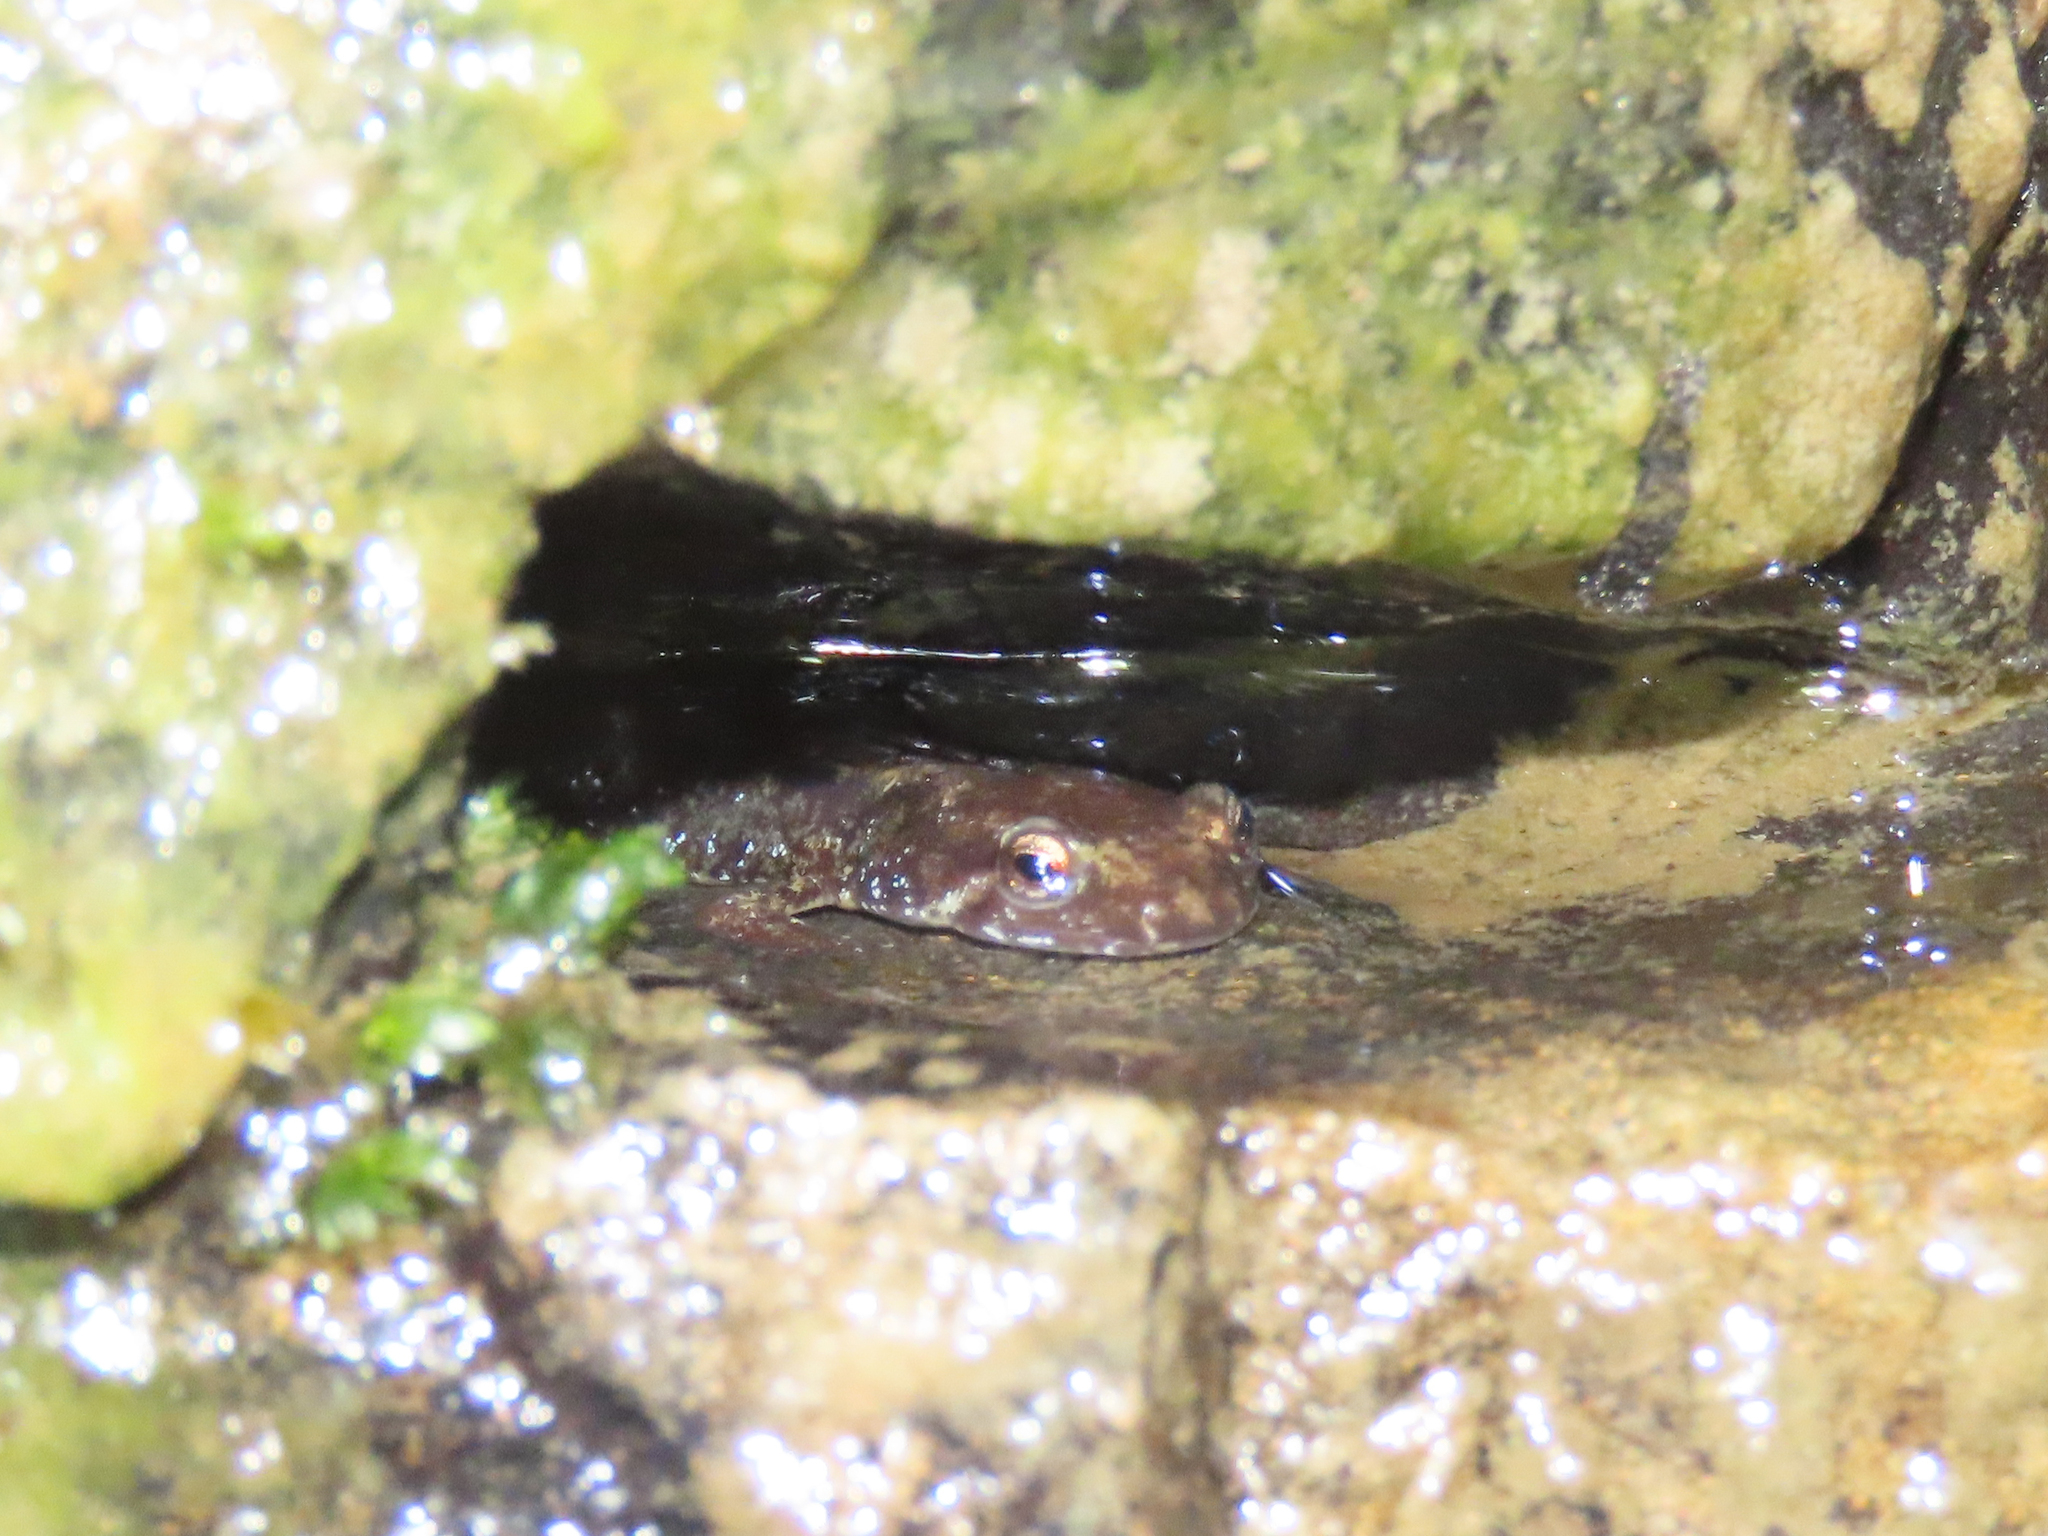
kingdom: Animalia
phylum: Chordata
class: Amphibia
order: Caudata
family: Plethodontidae
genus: Desmognathus
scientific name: Desmognathus ochrophaeus
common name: Allegheny mountain dusky salamander
